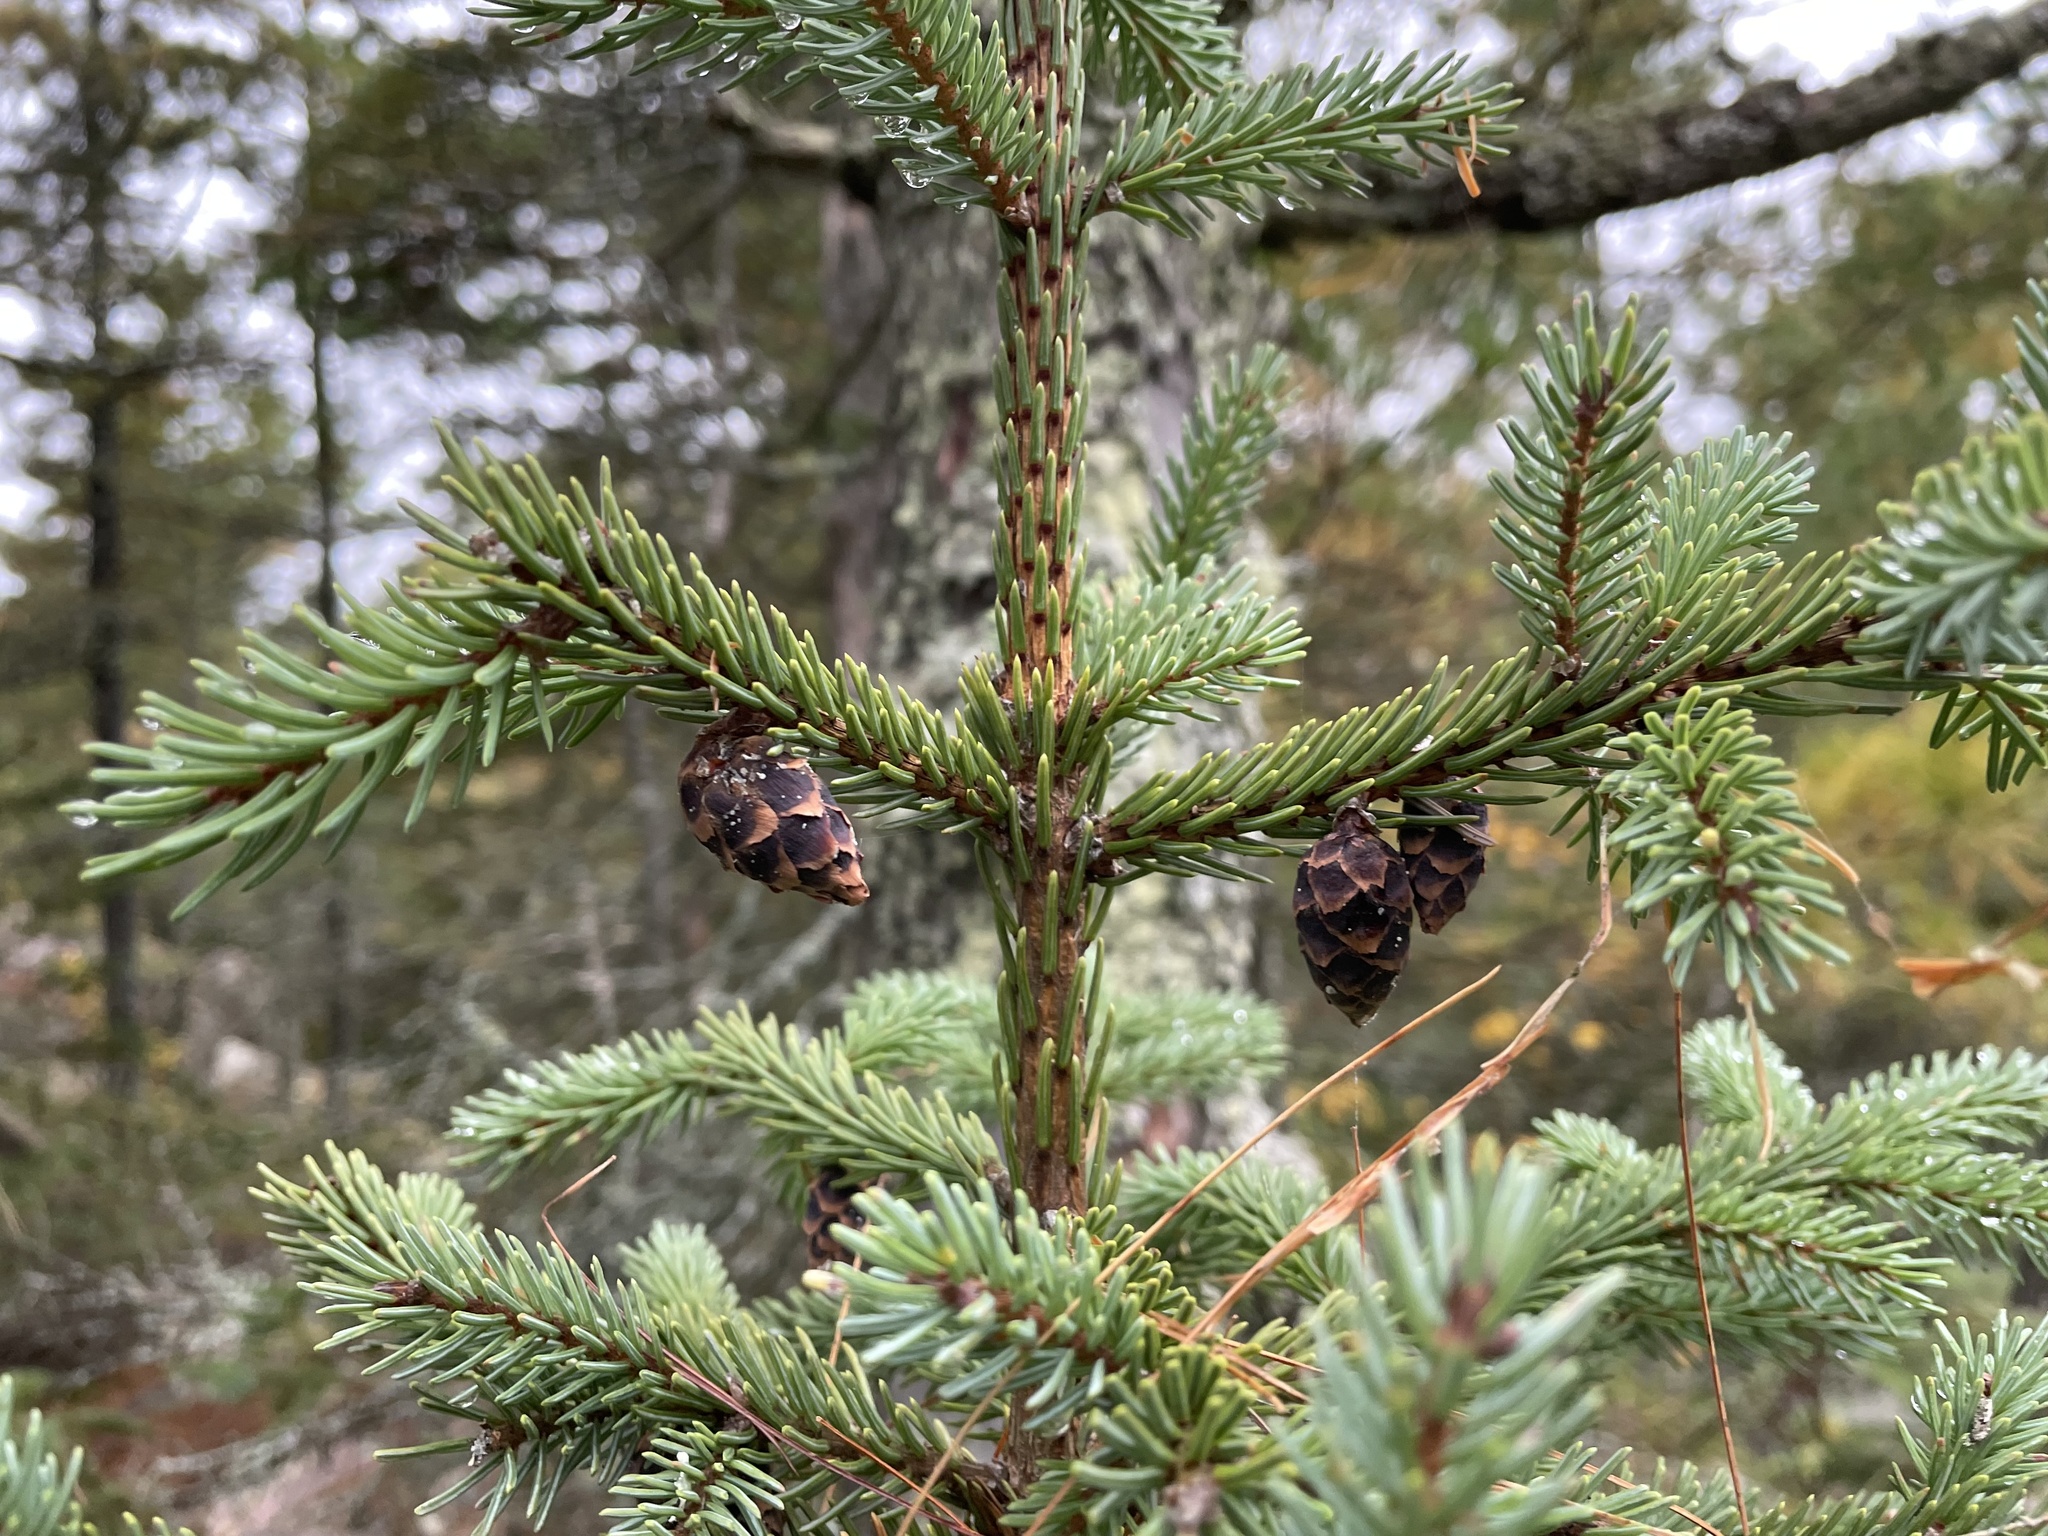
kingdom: Plantae
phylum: Tracheophyta
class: Pinopsida
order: Pinales
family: Pinaceae
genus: Picea
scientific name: Picea mariana
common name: Black spruce
